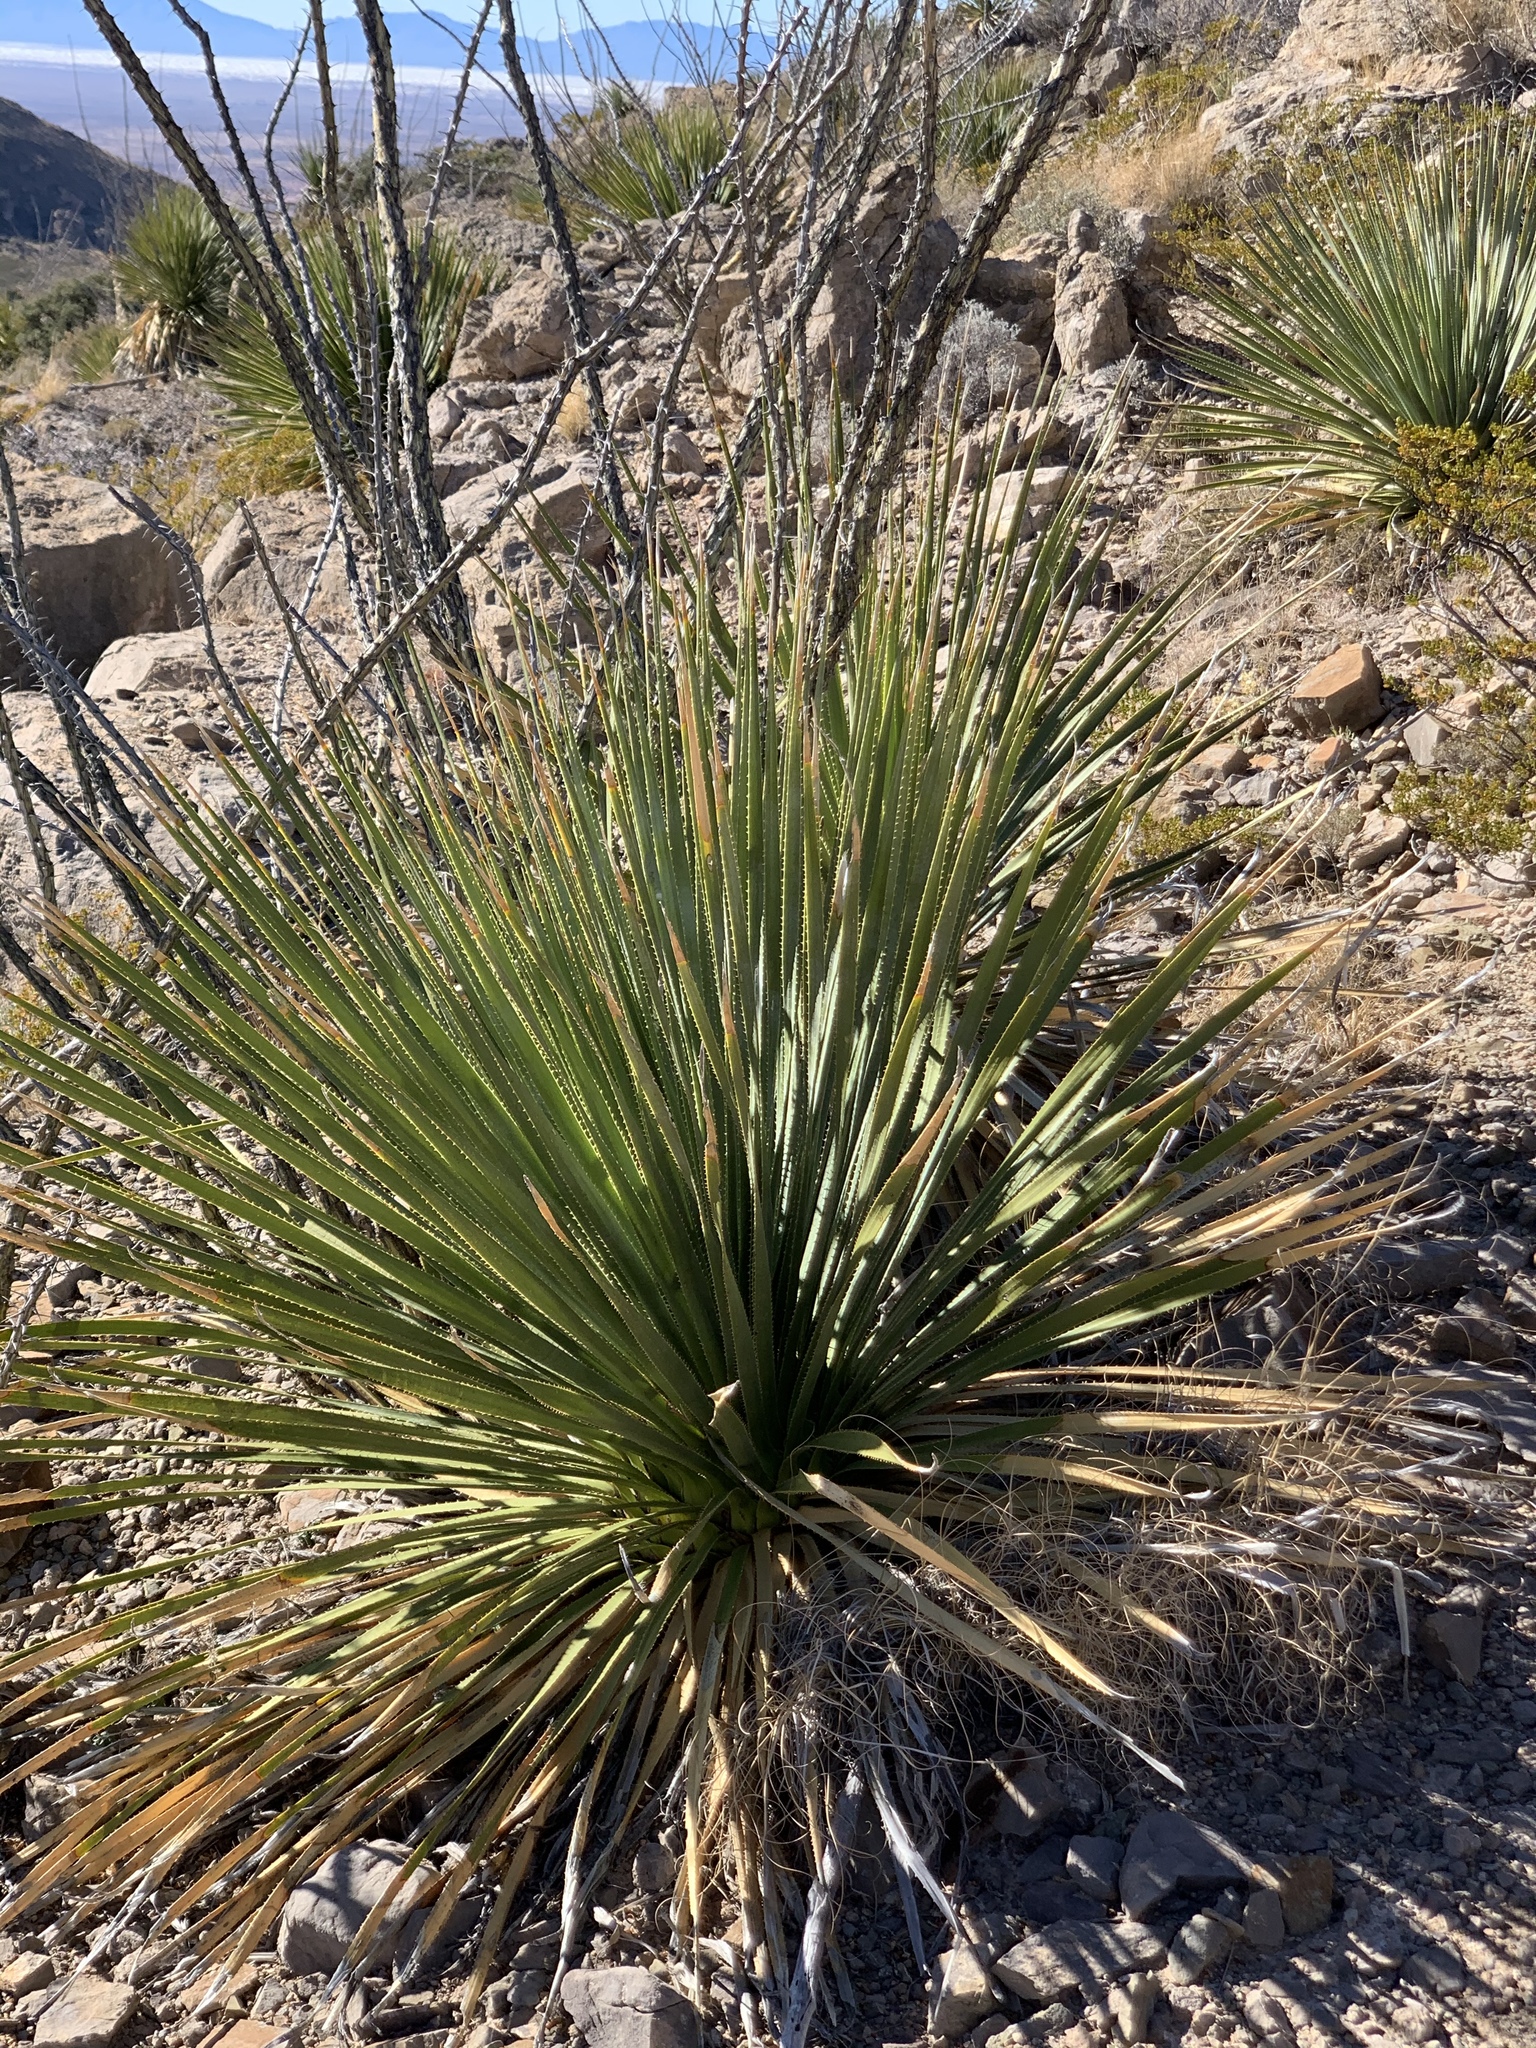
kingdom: Plantae
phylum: Tracheophyta
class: Liliopsida
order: Asparagales
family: Asparagaceae
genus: Dasylirion
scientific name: Dasylirion wheeleri
